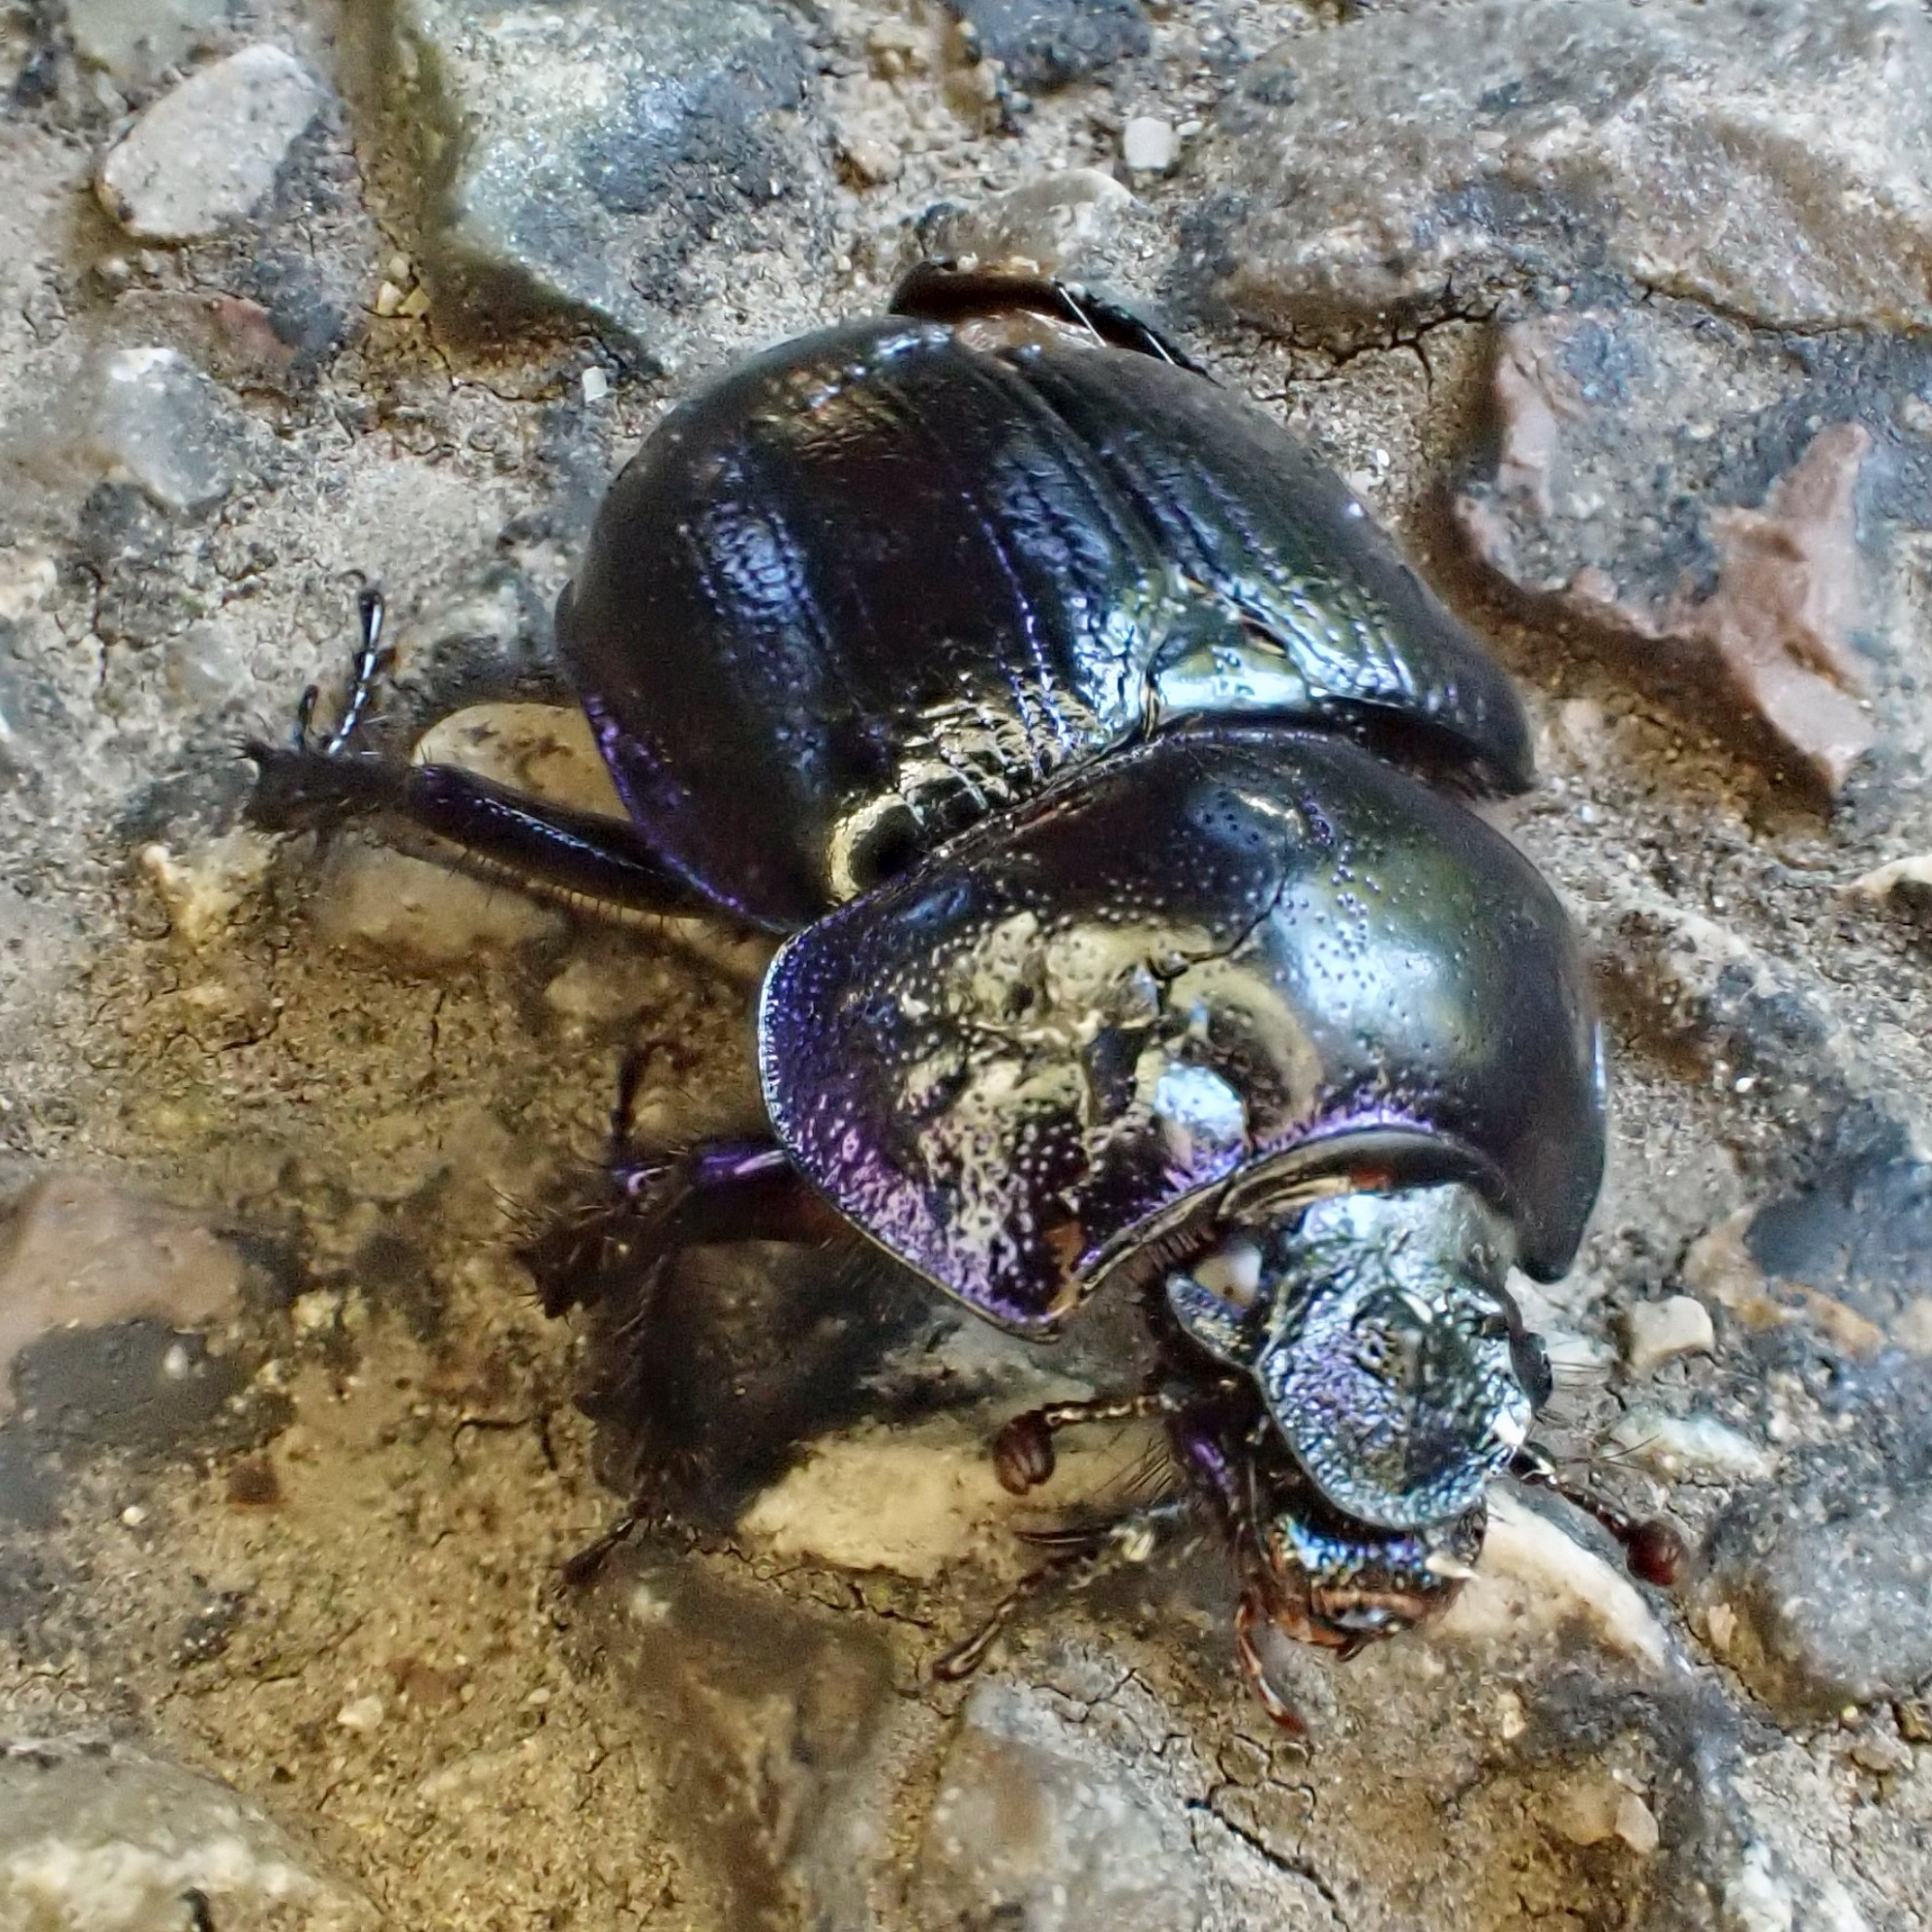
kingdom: Animalia
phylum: Arthropoda
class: Insecta
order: Coleoptera
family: Geotrupidae
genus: Anoplotrupes
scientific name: Anoplotrupes stercorosus
